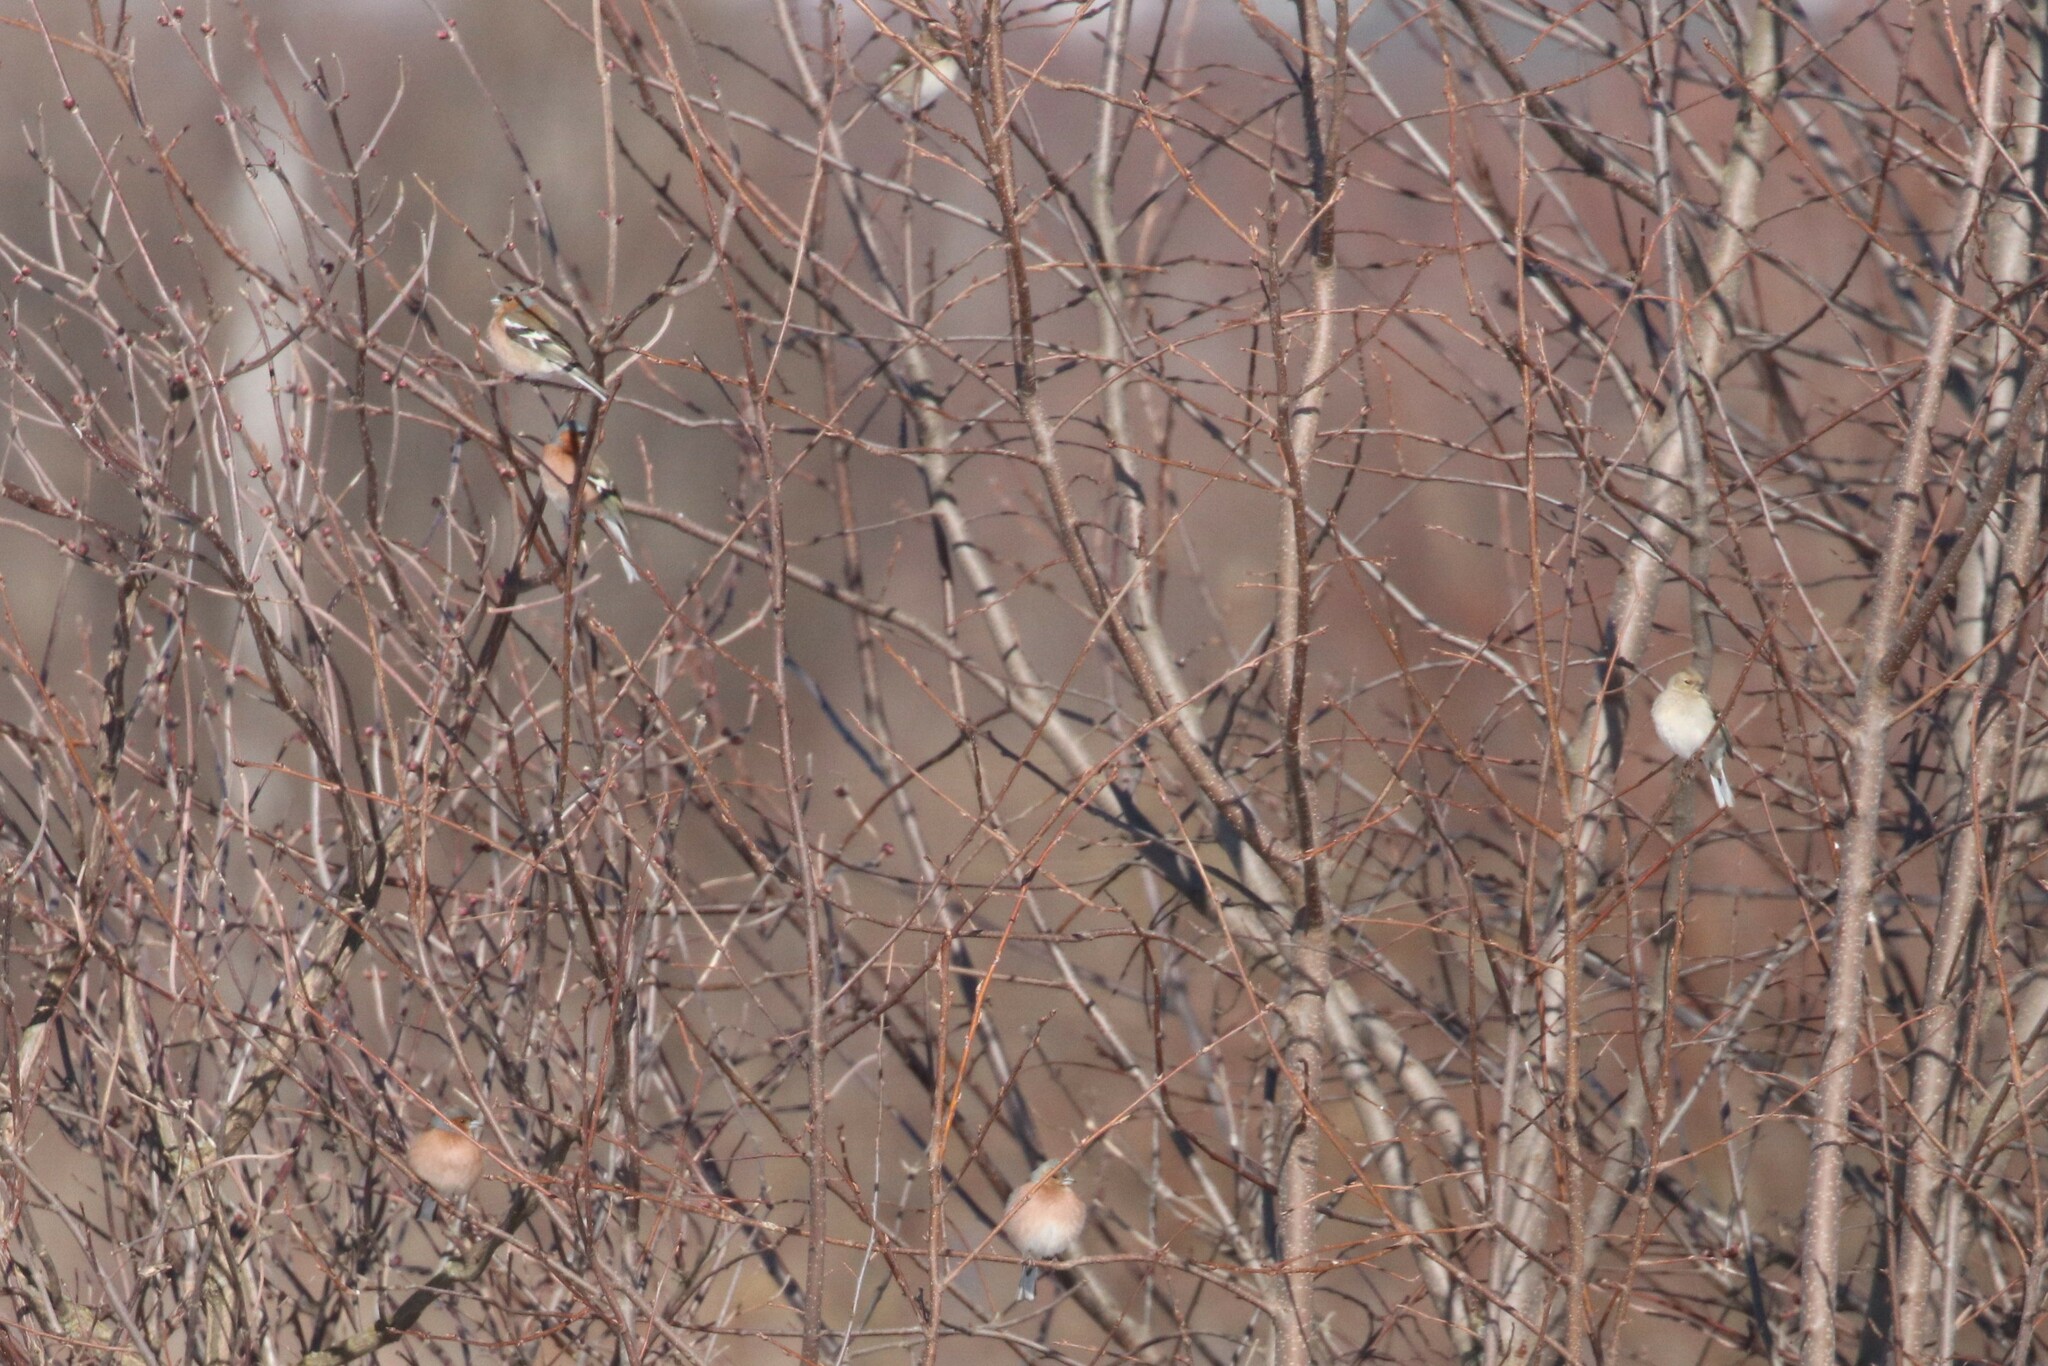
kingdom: Animalia
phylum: Chordata
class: Aves
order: Passeriformes
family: Fringillidae
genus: Fringilla
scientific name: Fringilla coelebs
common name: Common chaffinch
